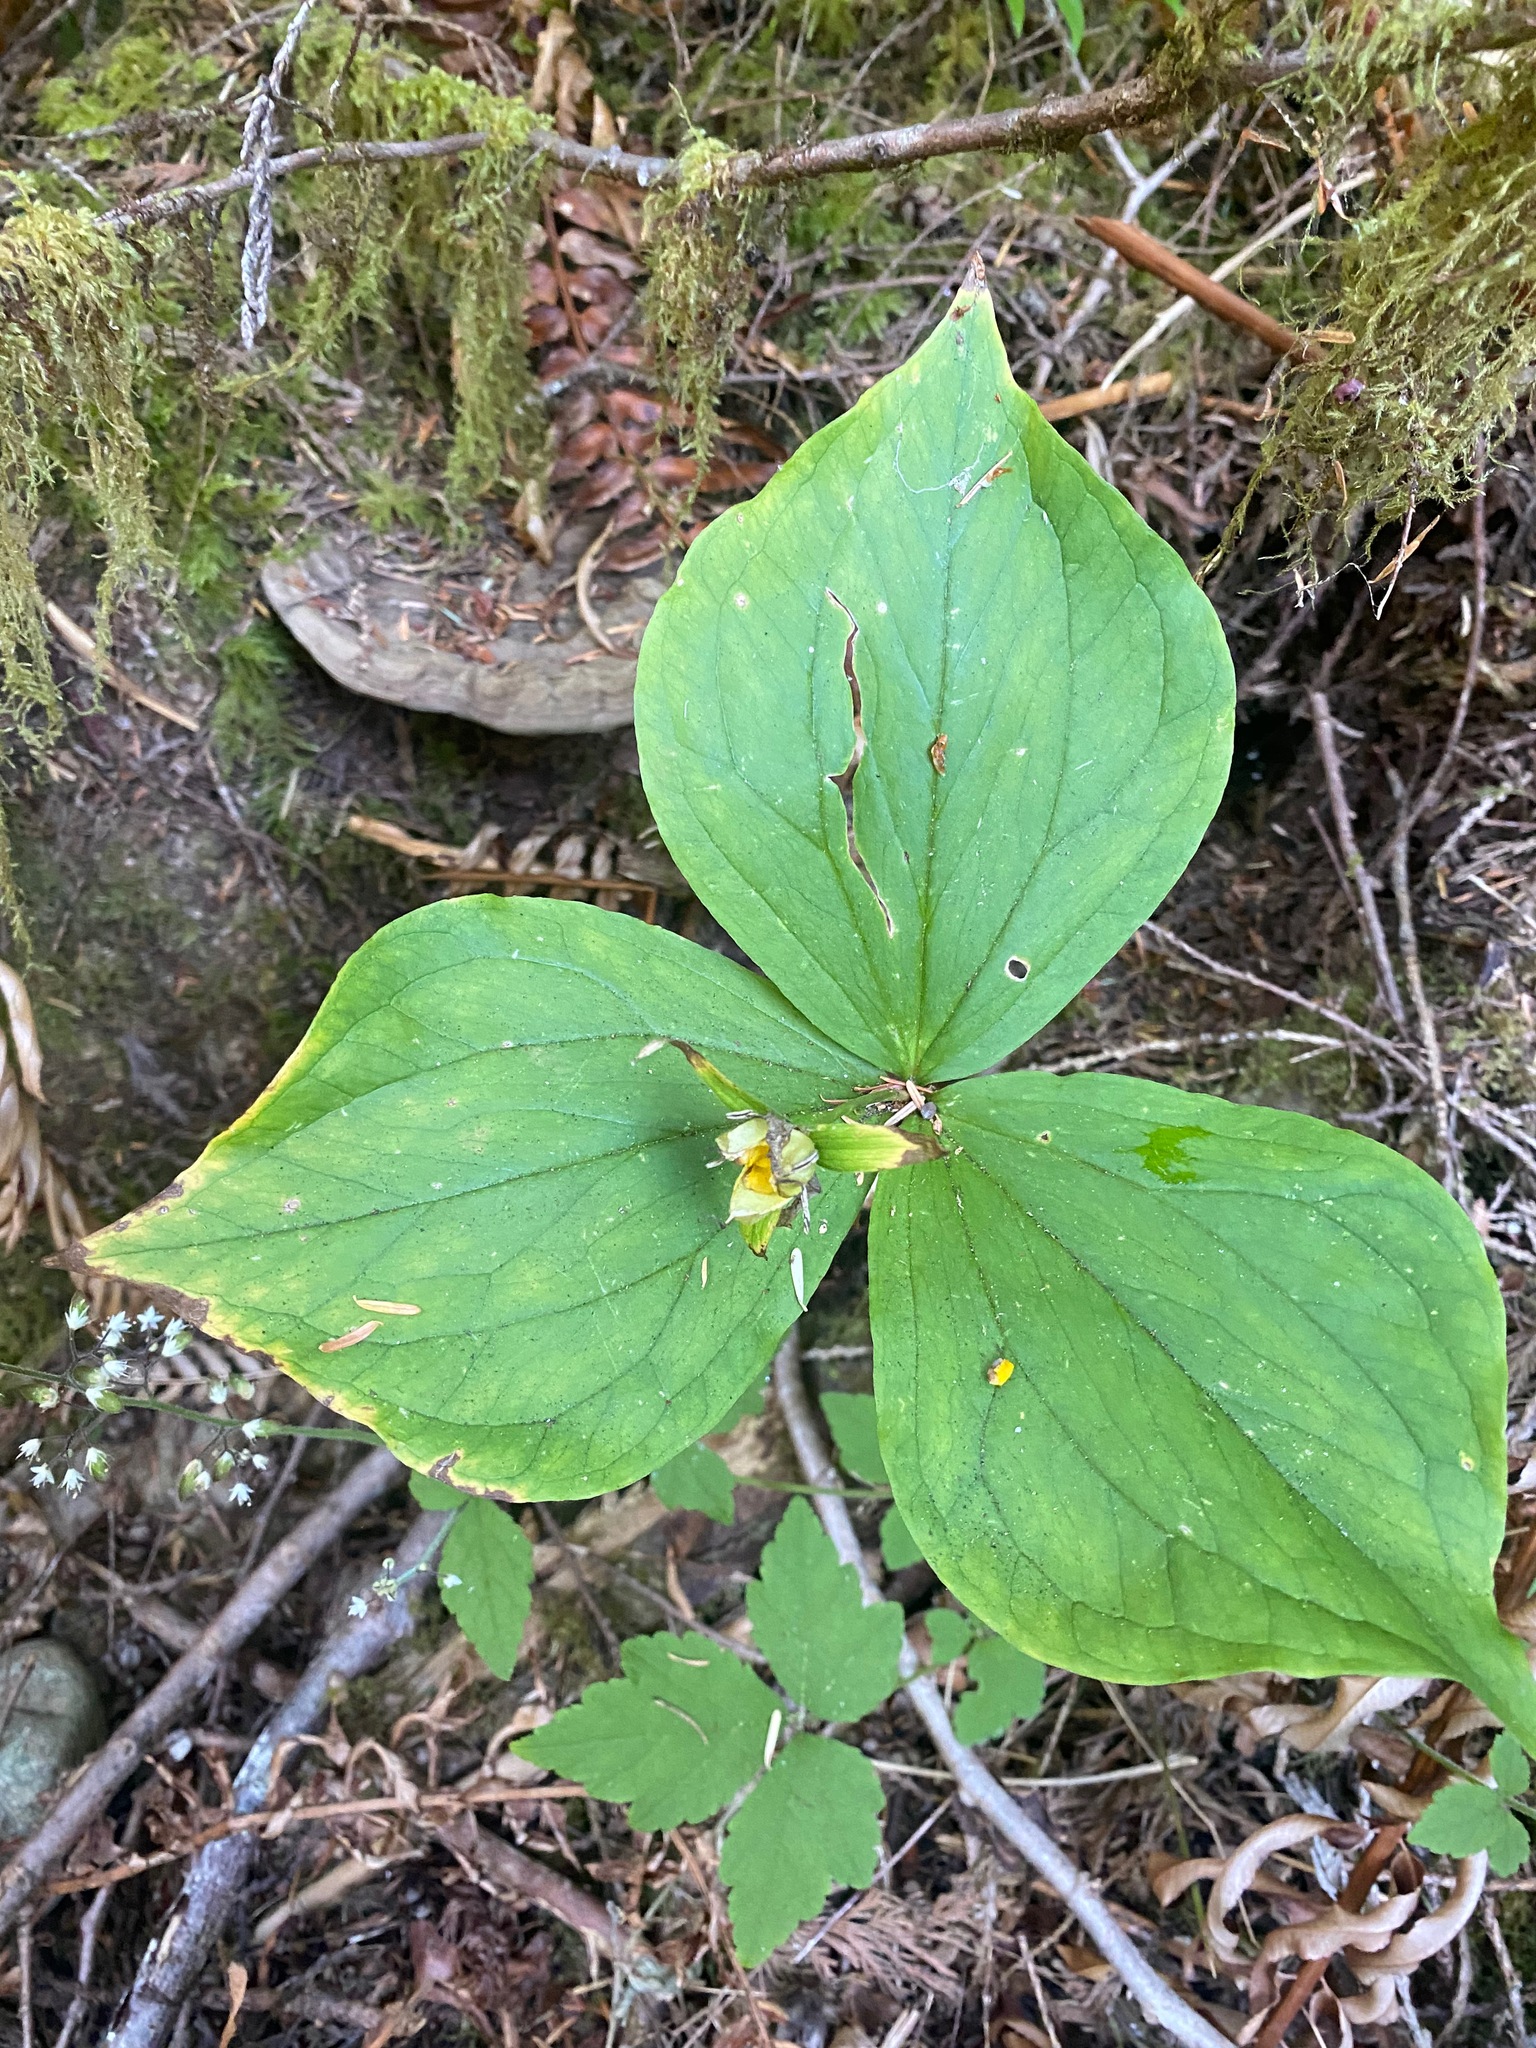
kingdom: Plantae
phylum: Tracheophyta
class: Liliopsida
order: Liliales
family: Melanthiaceae
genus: Trillium
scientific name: Trillium ovatum
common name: Pacific trillium
